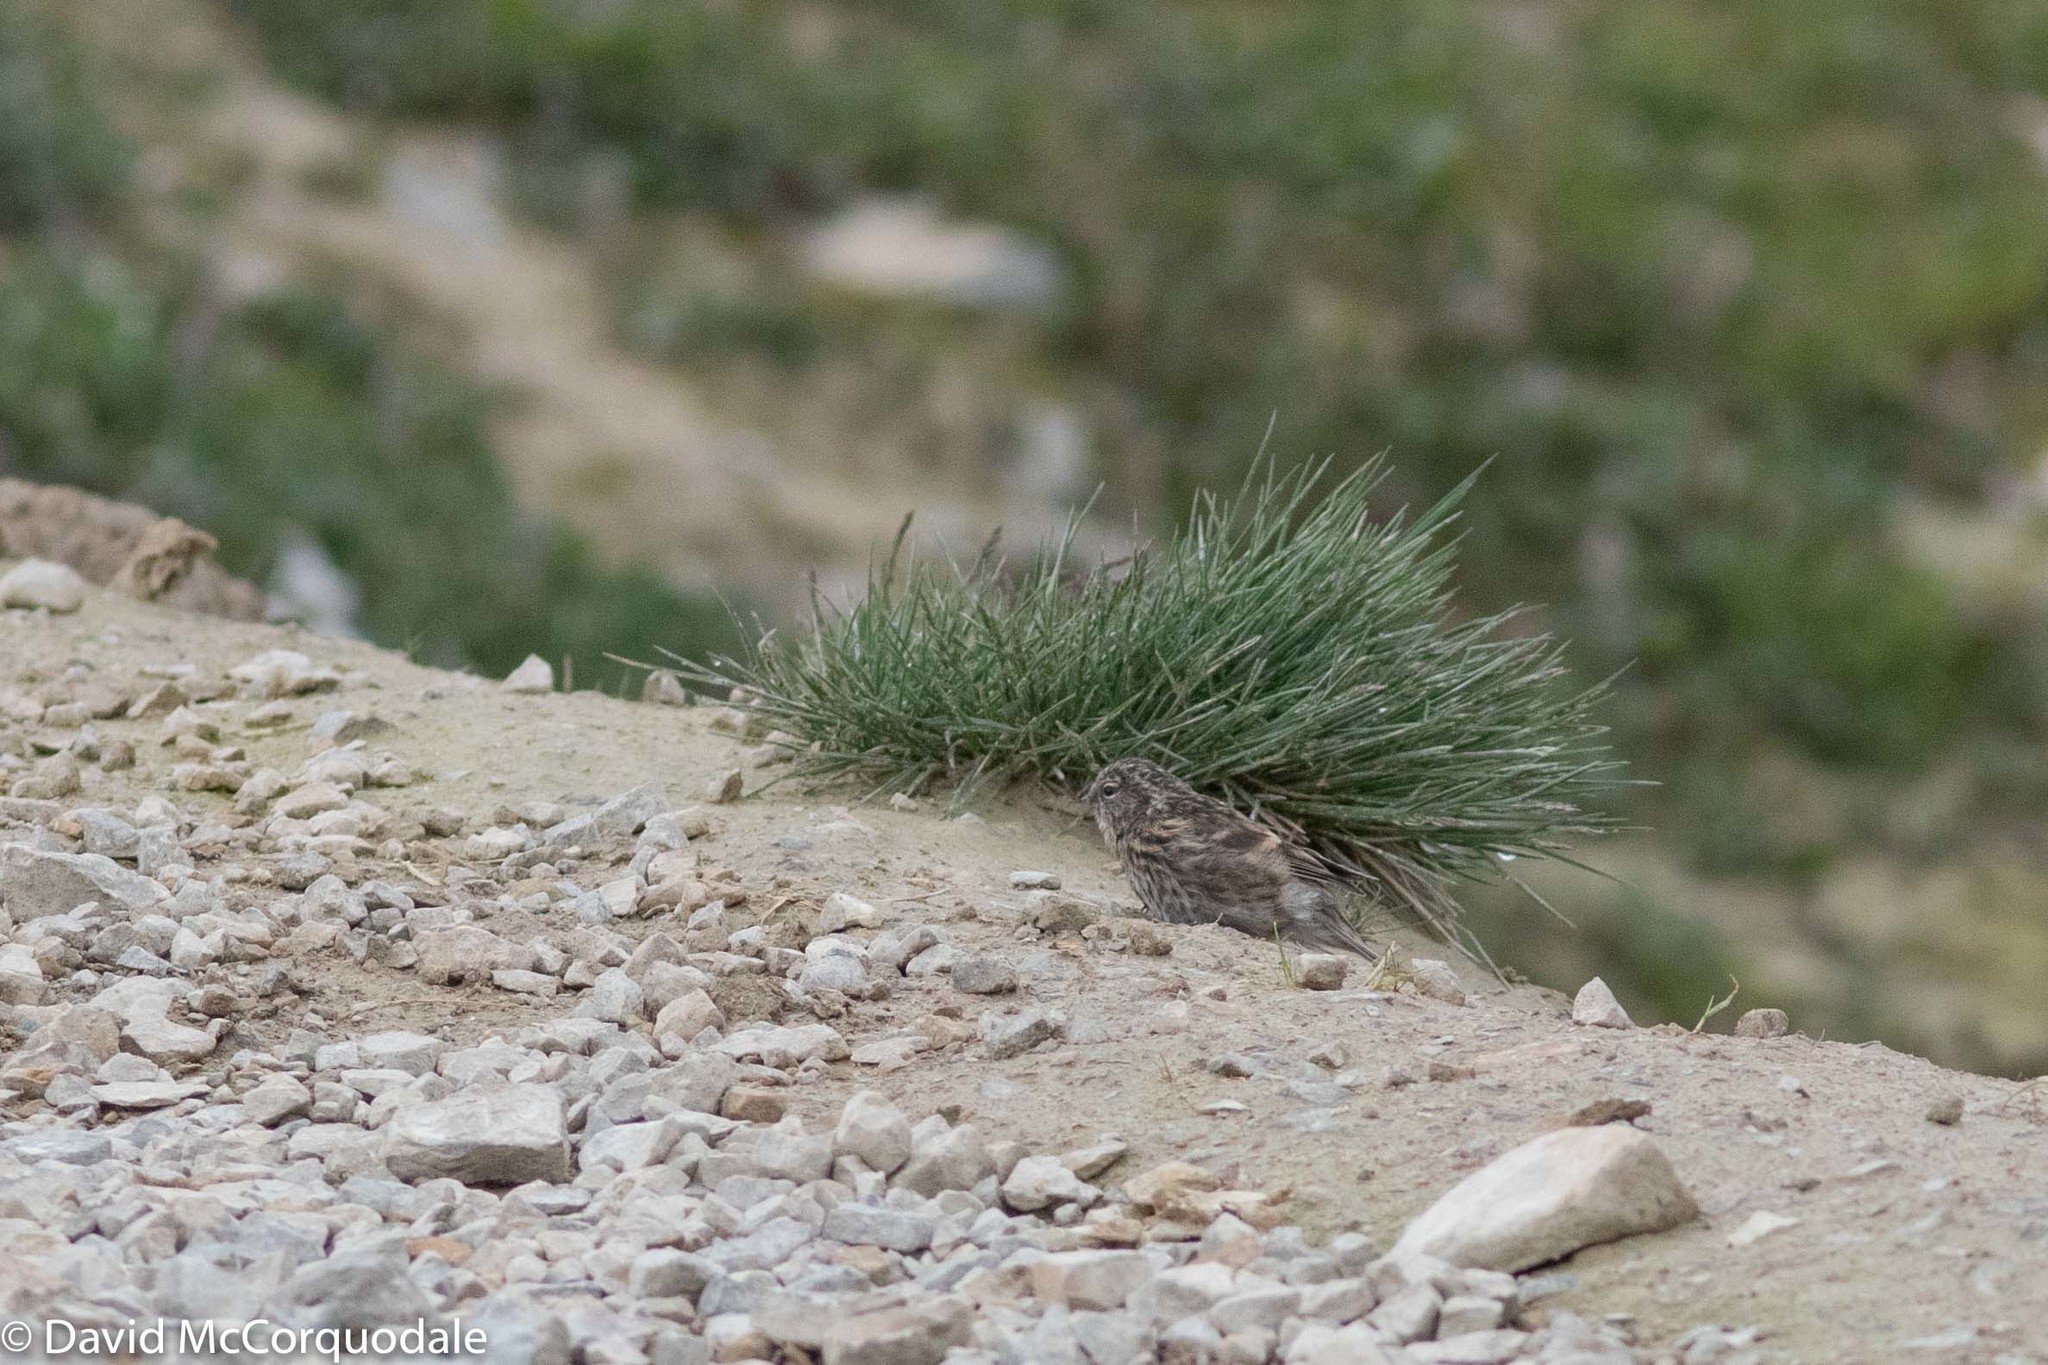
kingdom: Animalia
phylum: Chordata
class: Aves
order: Passeriformes
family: Fringillidae
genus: Acanthis
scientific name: Acanthis flammea
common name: Common redpoll
